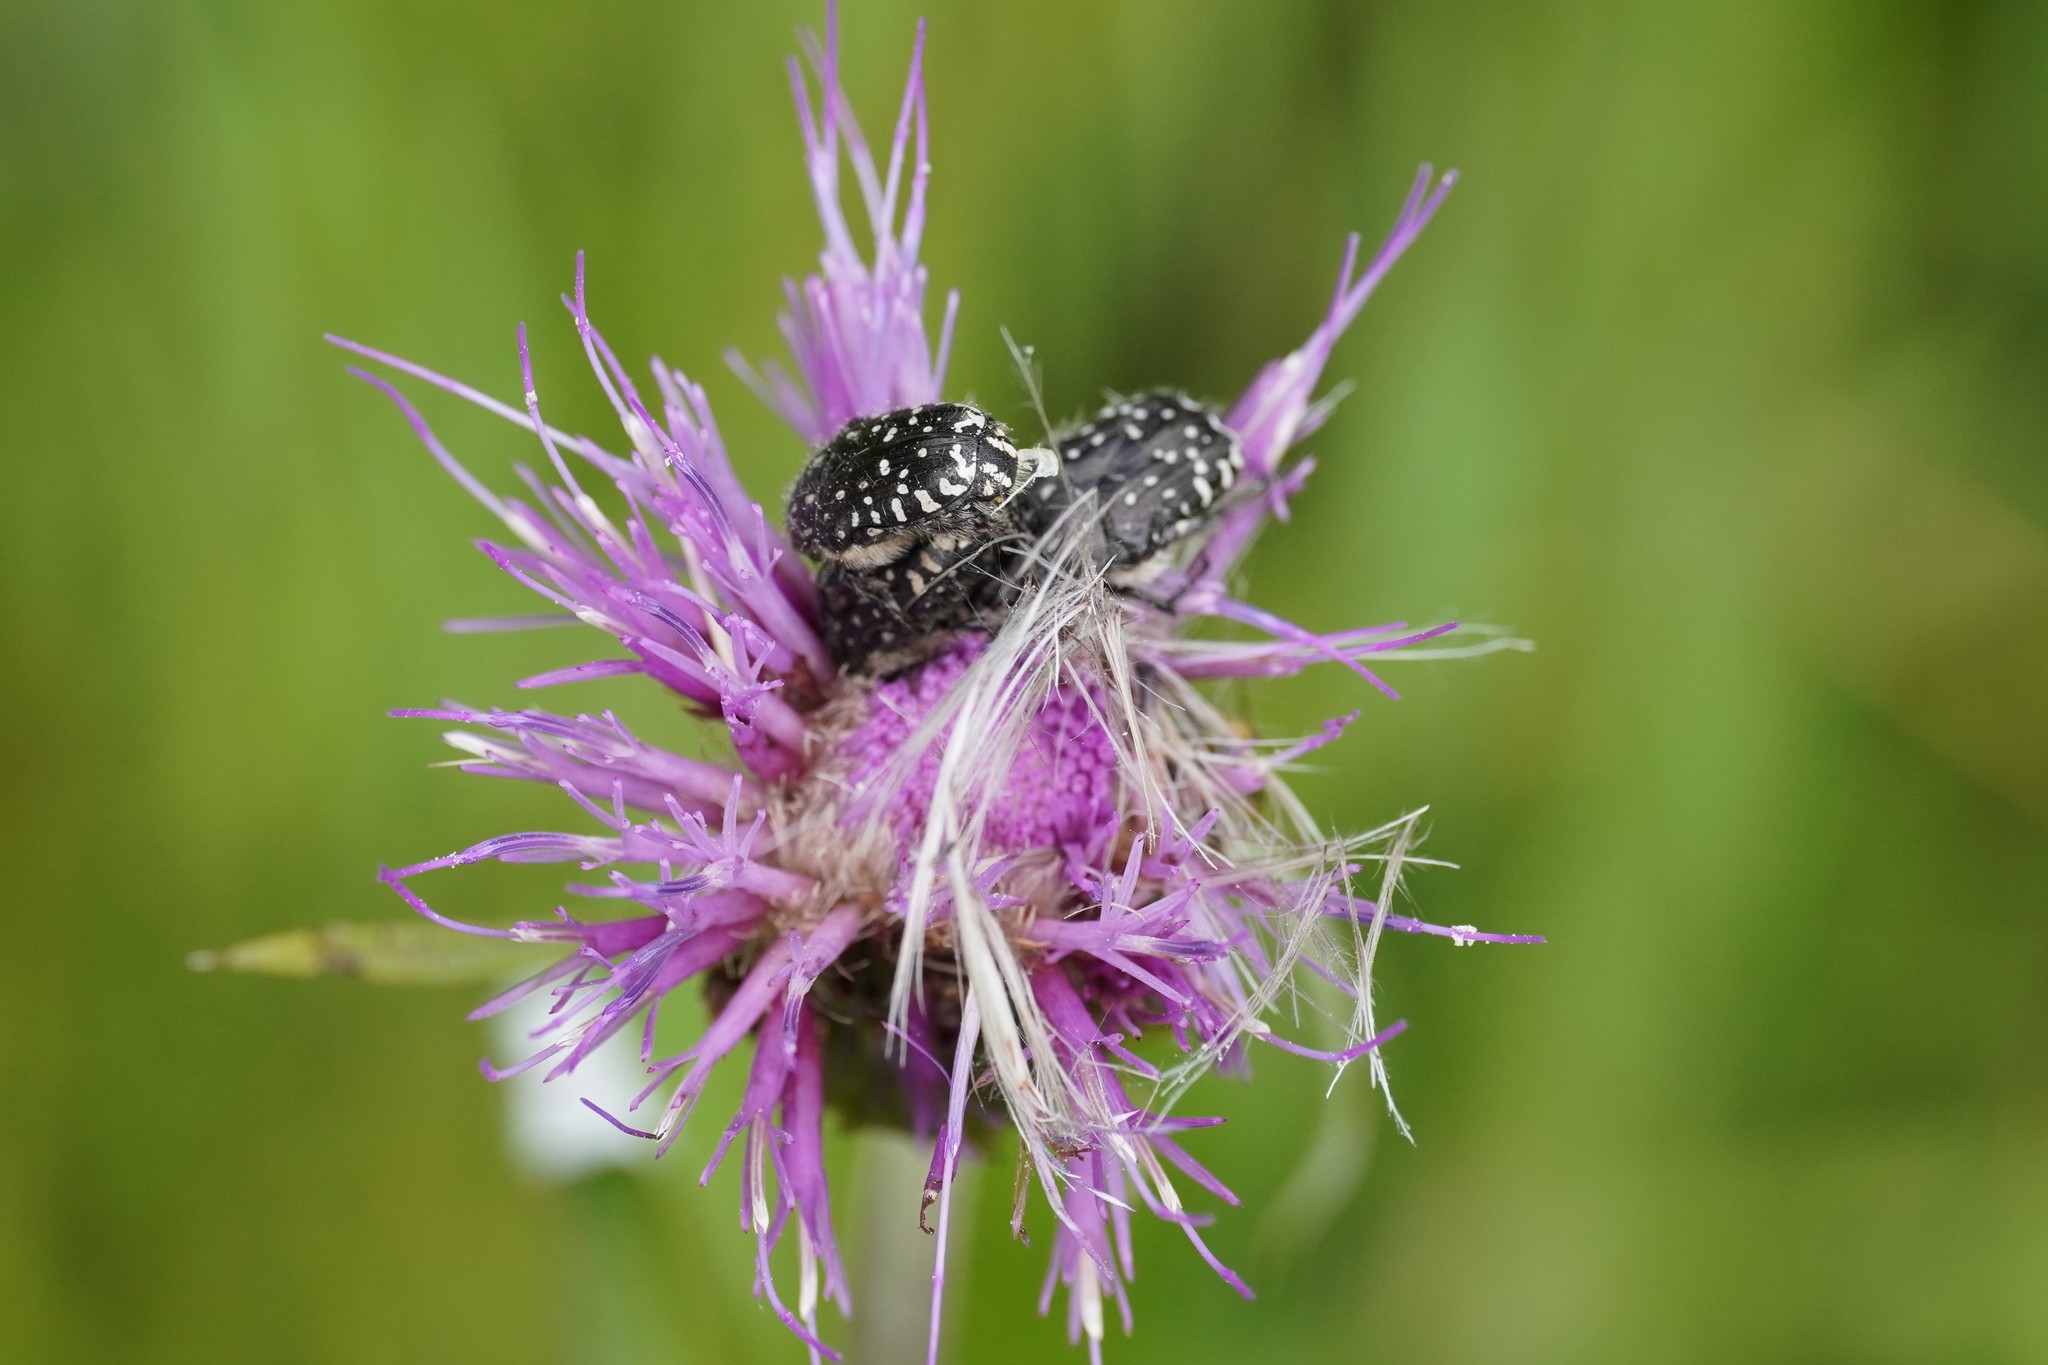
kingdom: Animalia
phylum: Arthropoda
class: Insecta
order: Coleoptera
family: Scarabaeidae
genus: Oxythyrea
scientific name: Oxythyrea funesta
